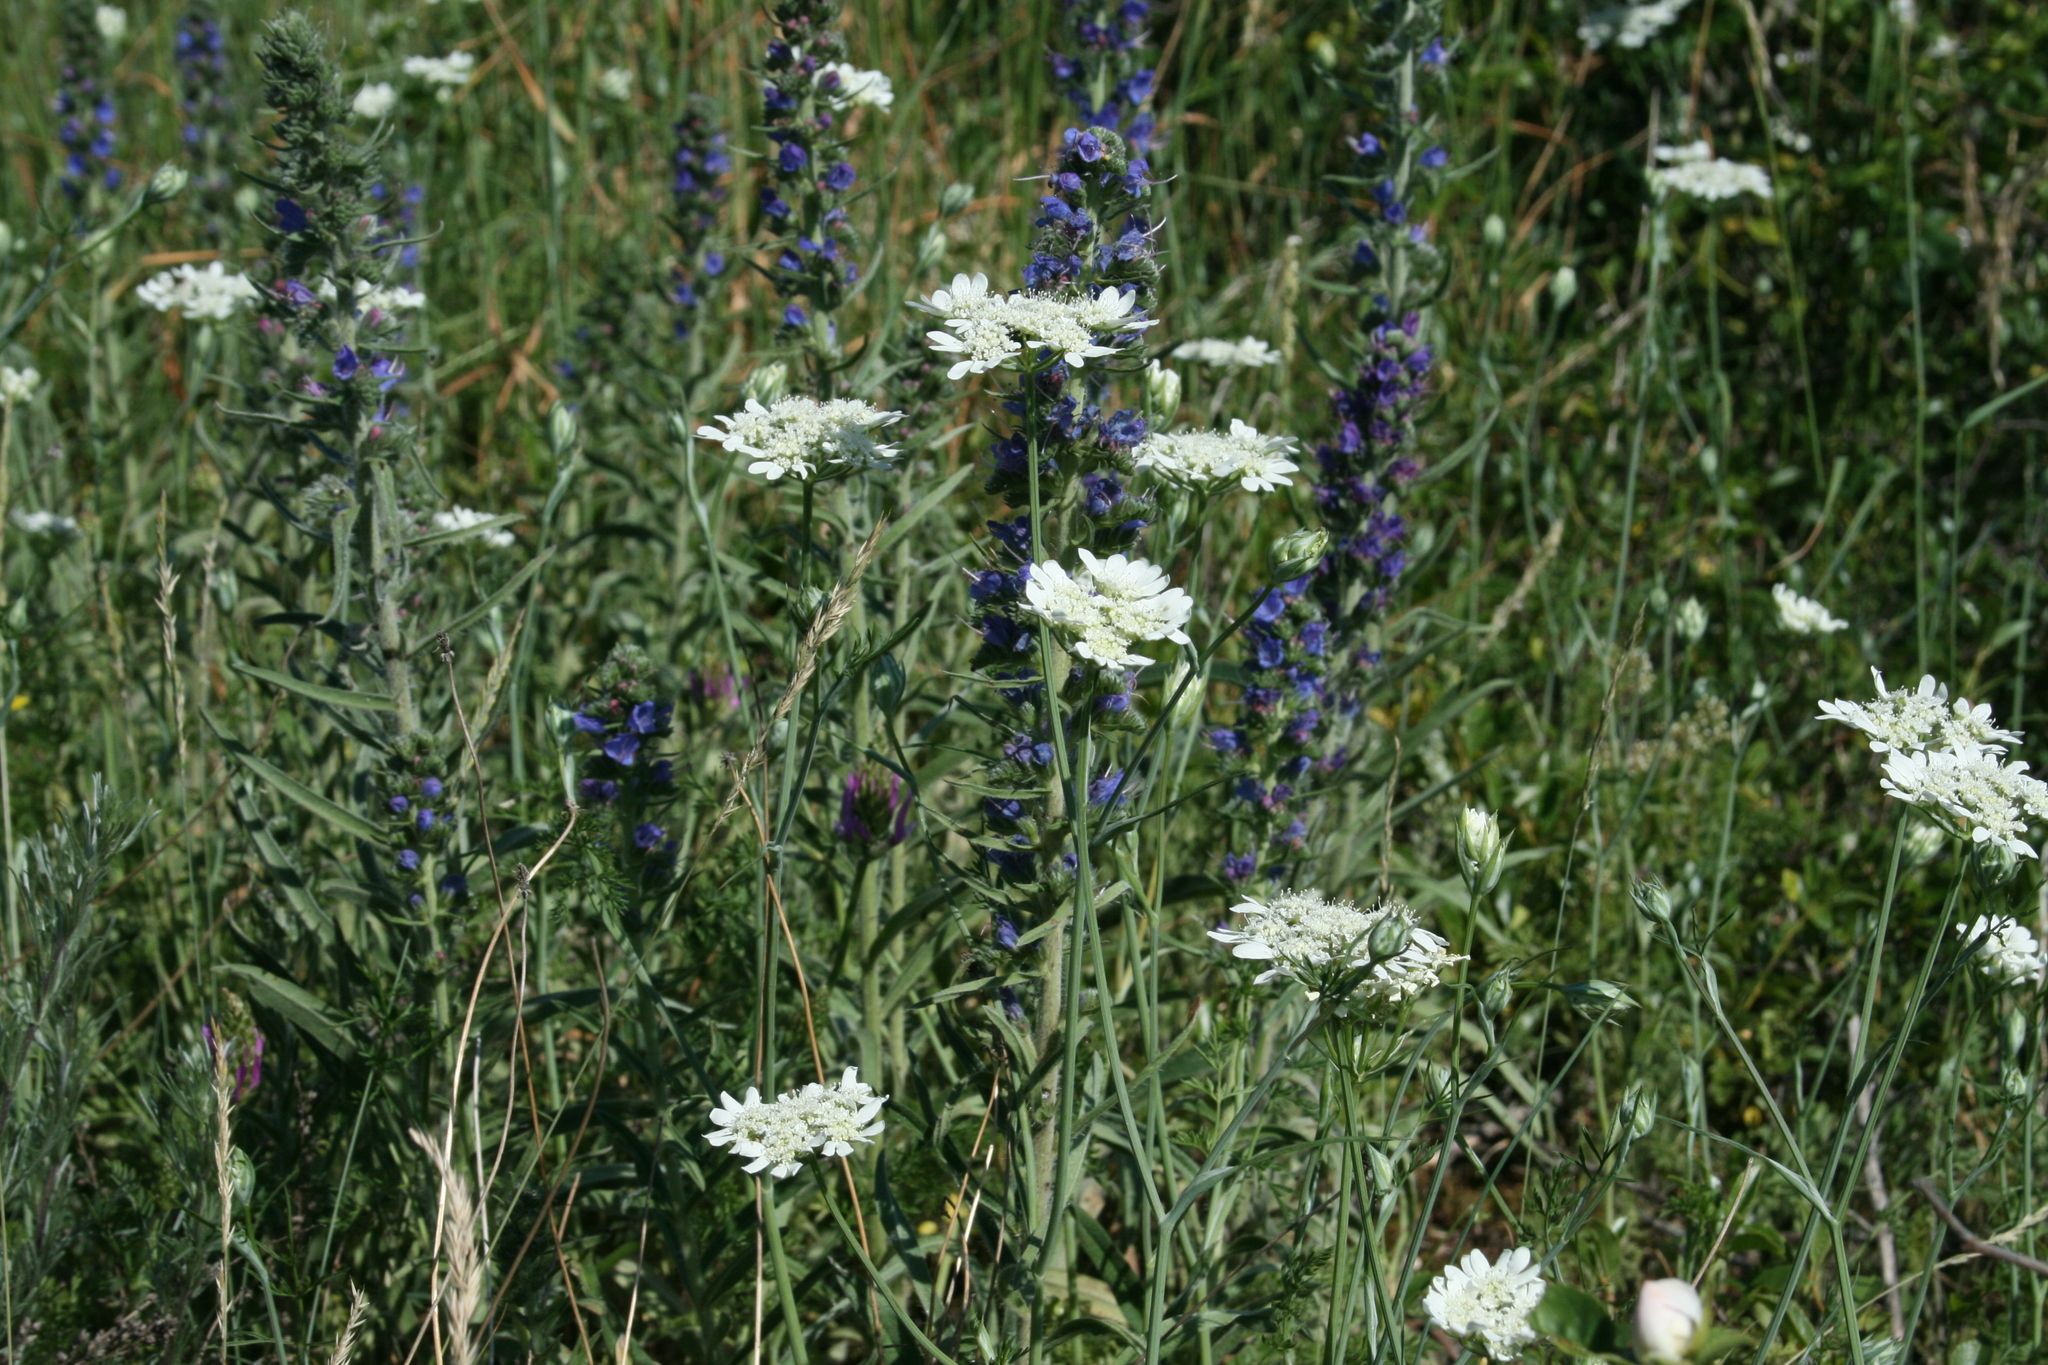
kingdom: Plantae
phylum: Tracheophyta
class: Magnoliopsida
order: Boraginales
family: Boraginaceae
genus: Echium
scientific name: Echium vulgare
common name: Common viper's bugloss
